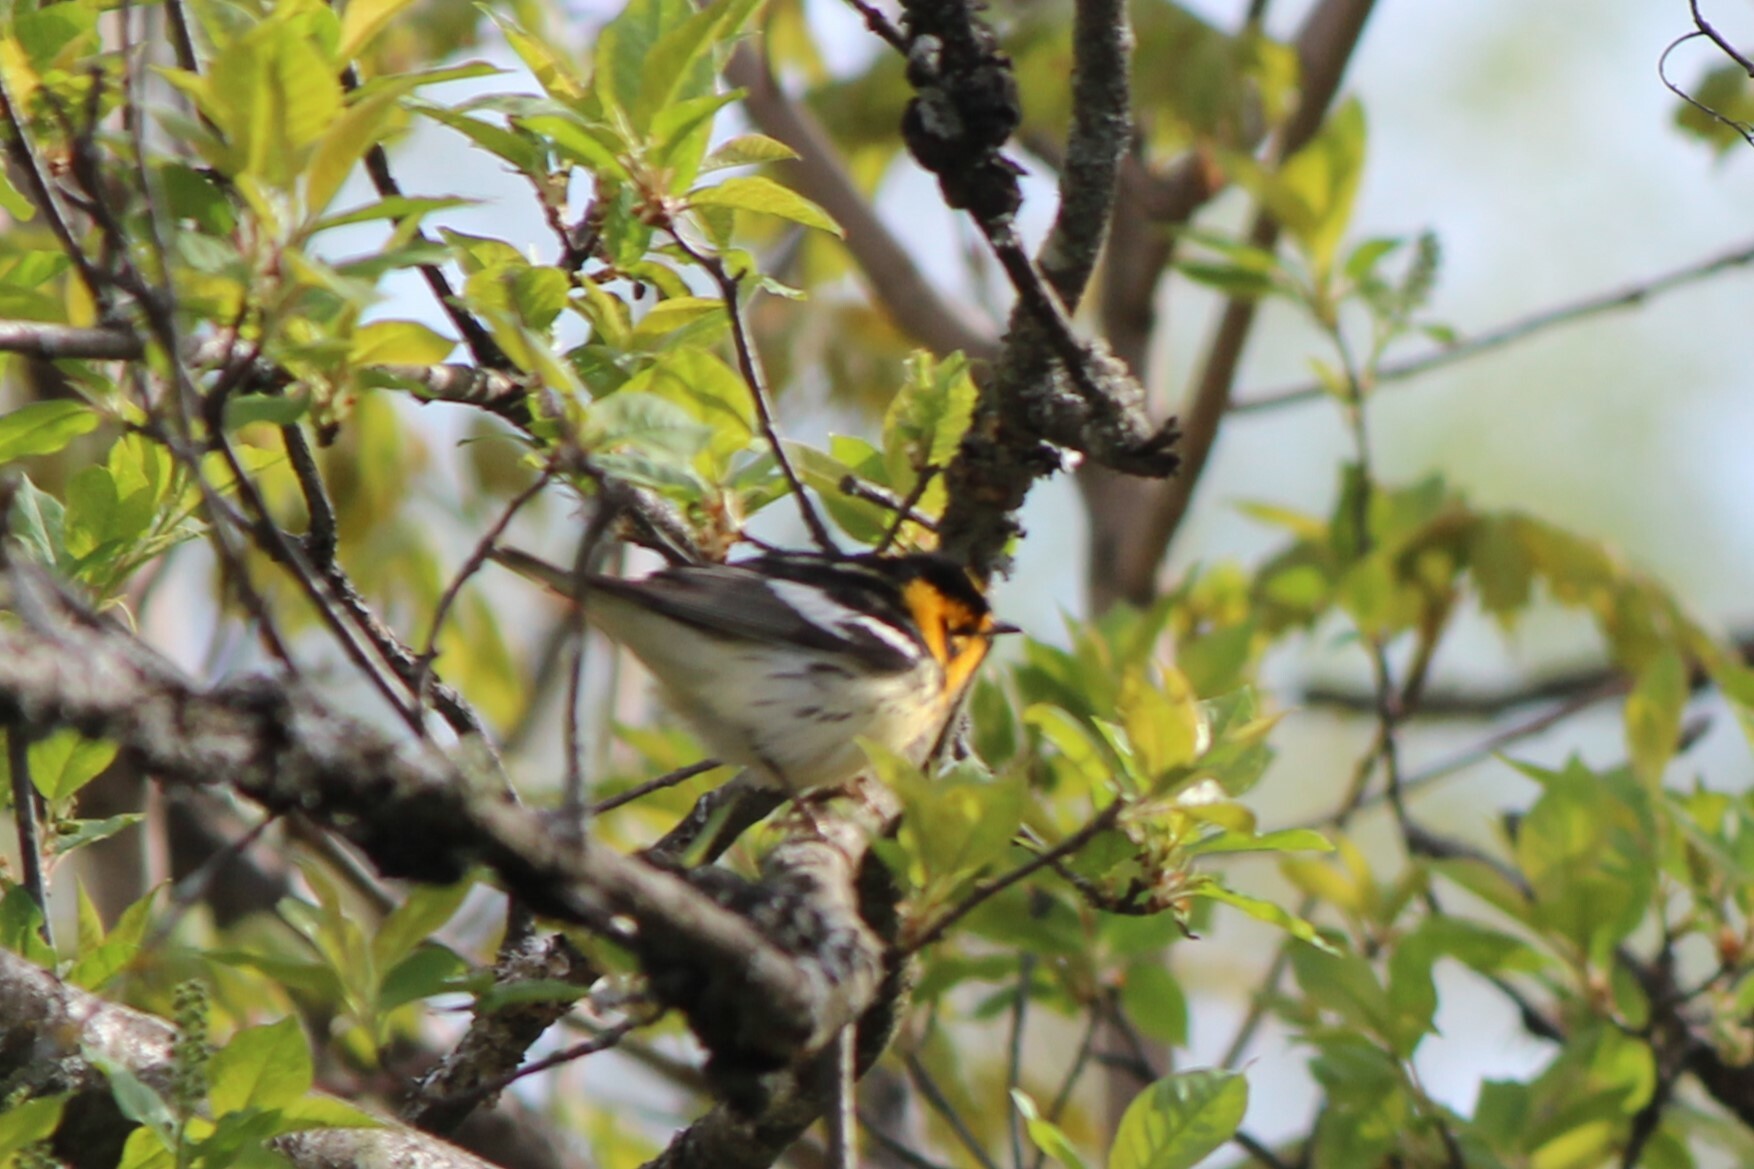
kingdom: Animalia
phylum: Chordata
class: Aves
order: Passeriformes
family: Parulidae
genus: Setophaga
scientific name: Setophaga fusca
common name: Blackburnian warbler
